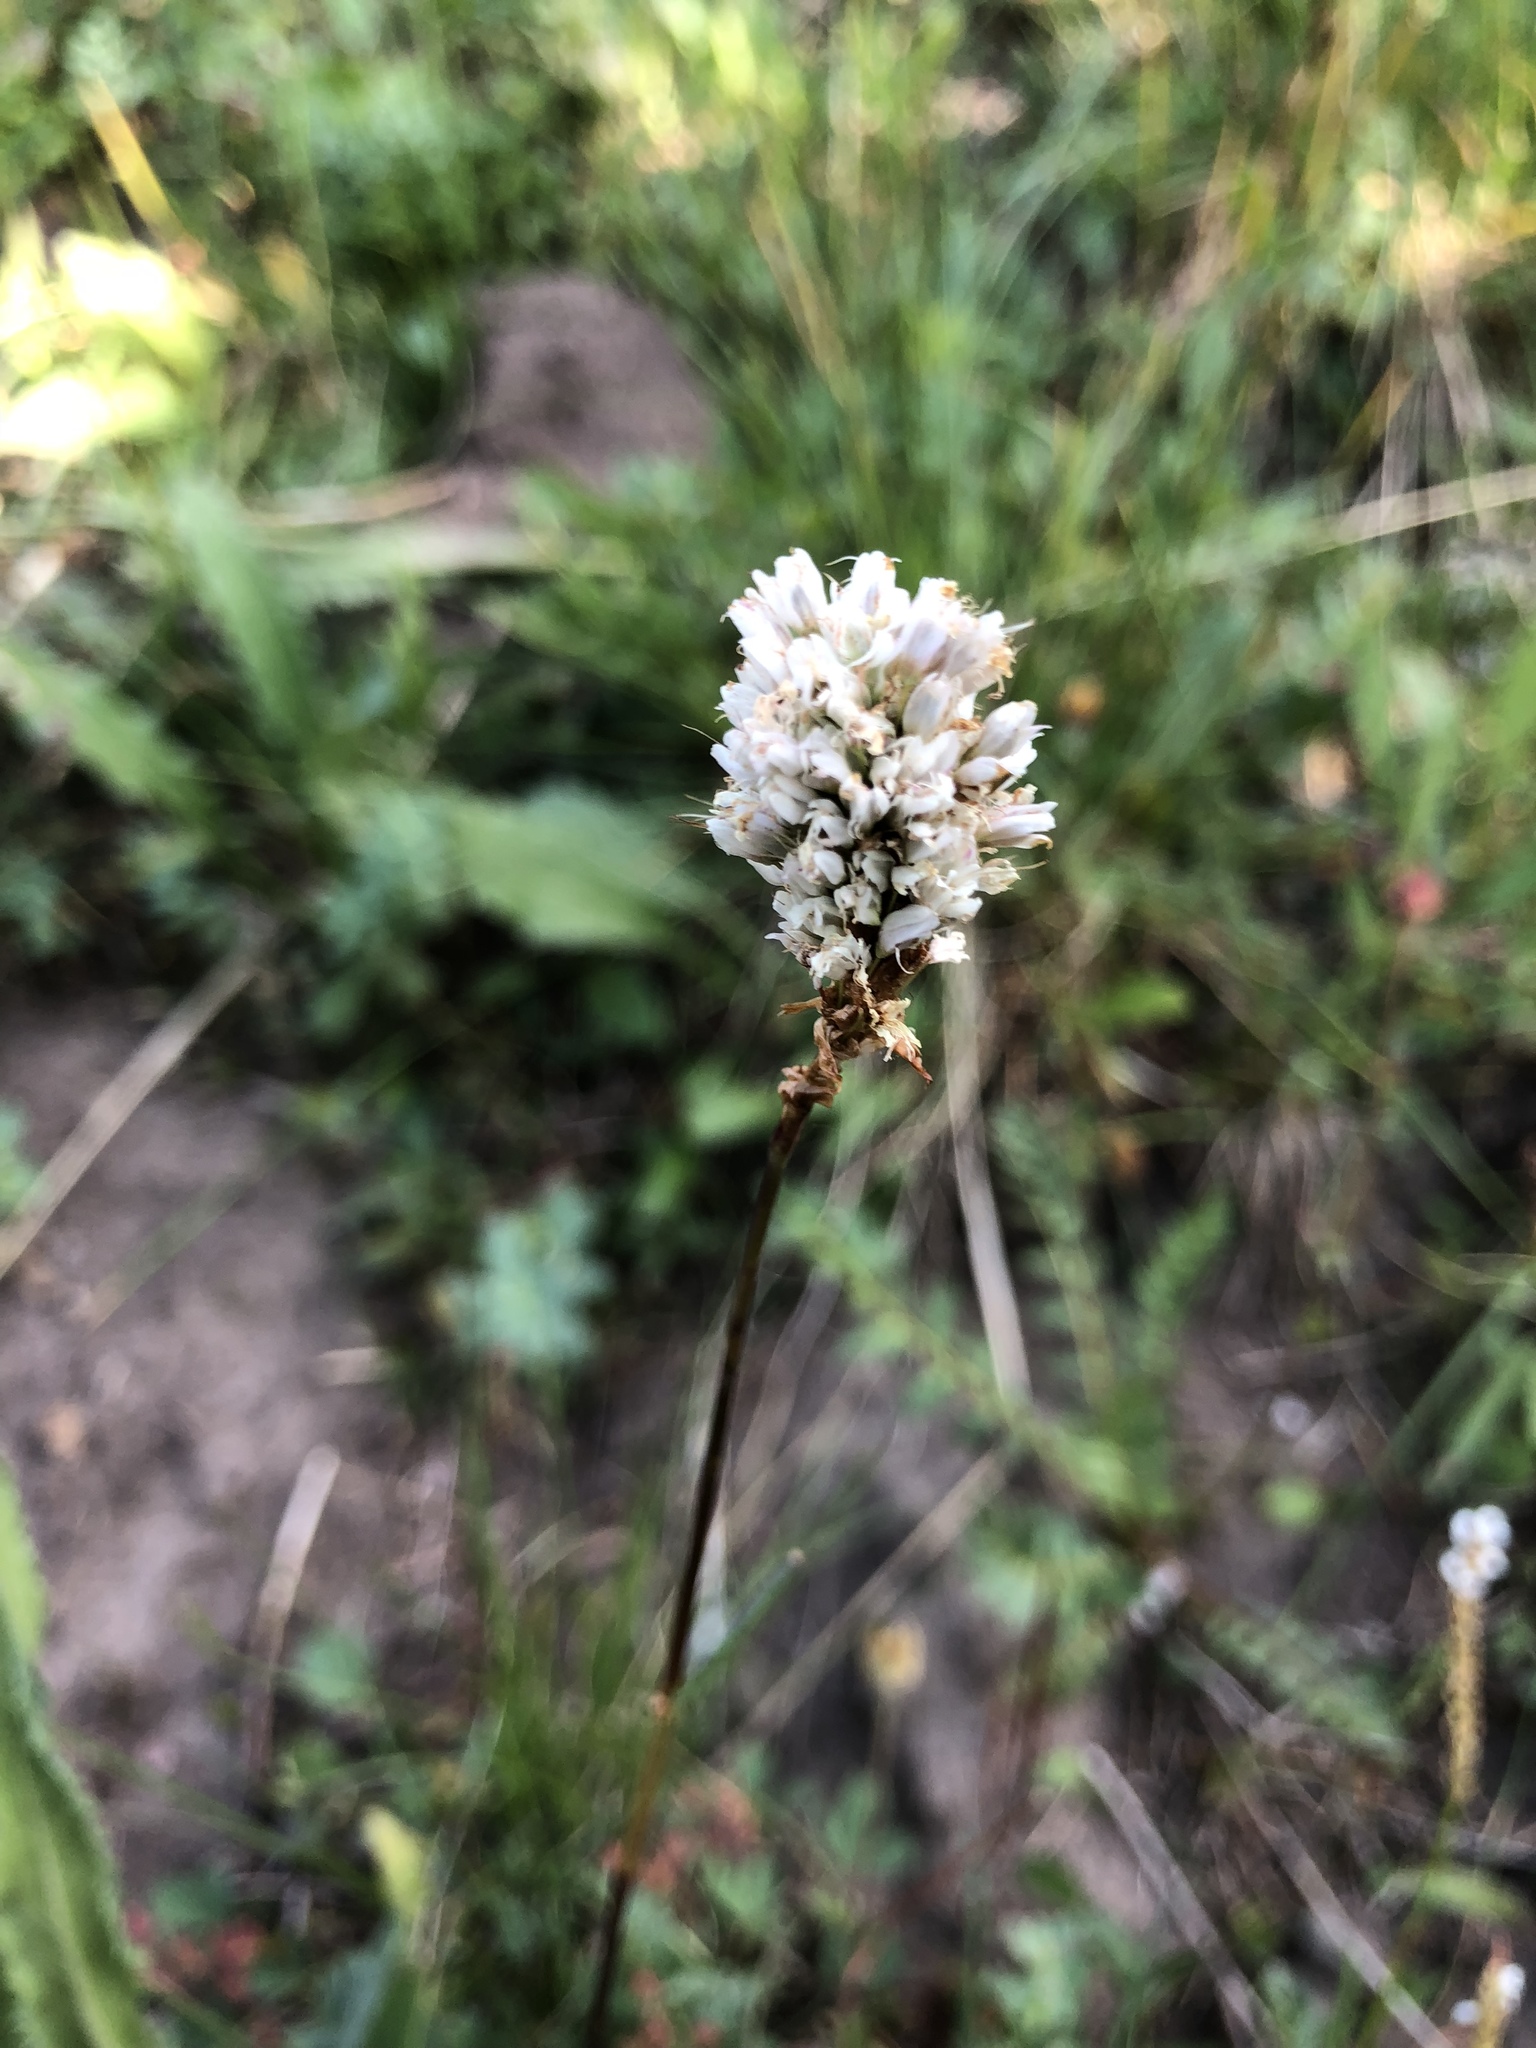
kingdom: Plantae
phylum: Tracheophyta
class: Magnoliopsida
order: Caryophyllales
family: Polygonaceae
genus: Bistorta
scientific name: Bistorta bistortoides
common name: American bistort
